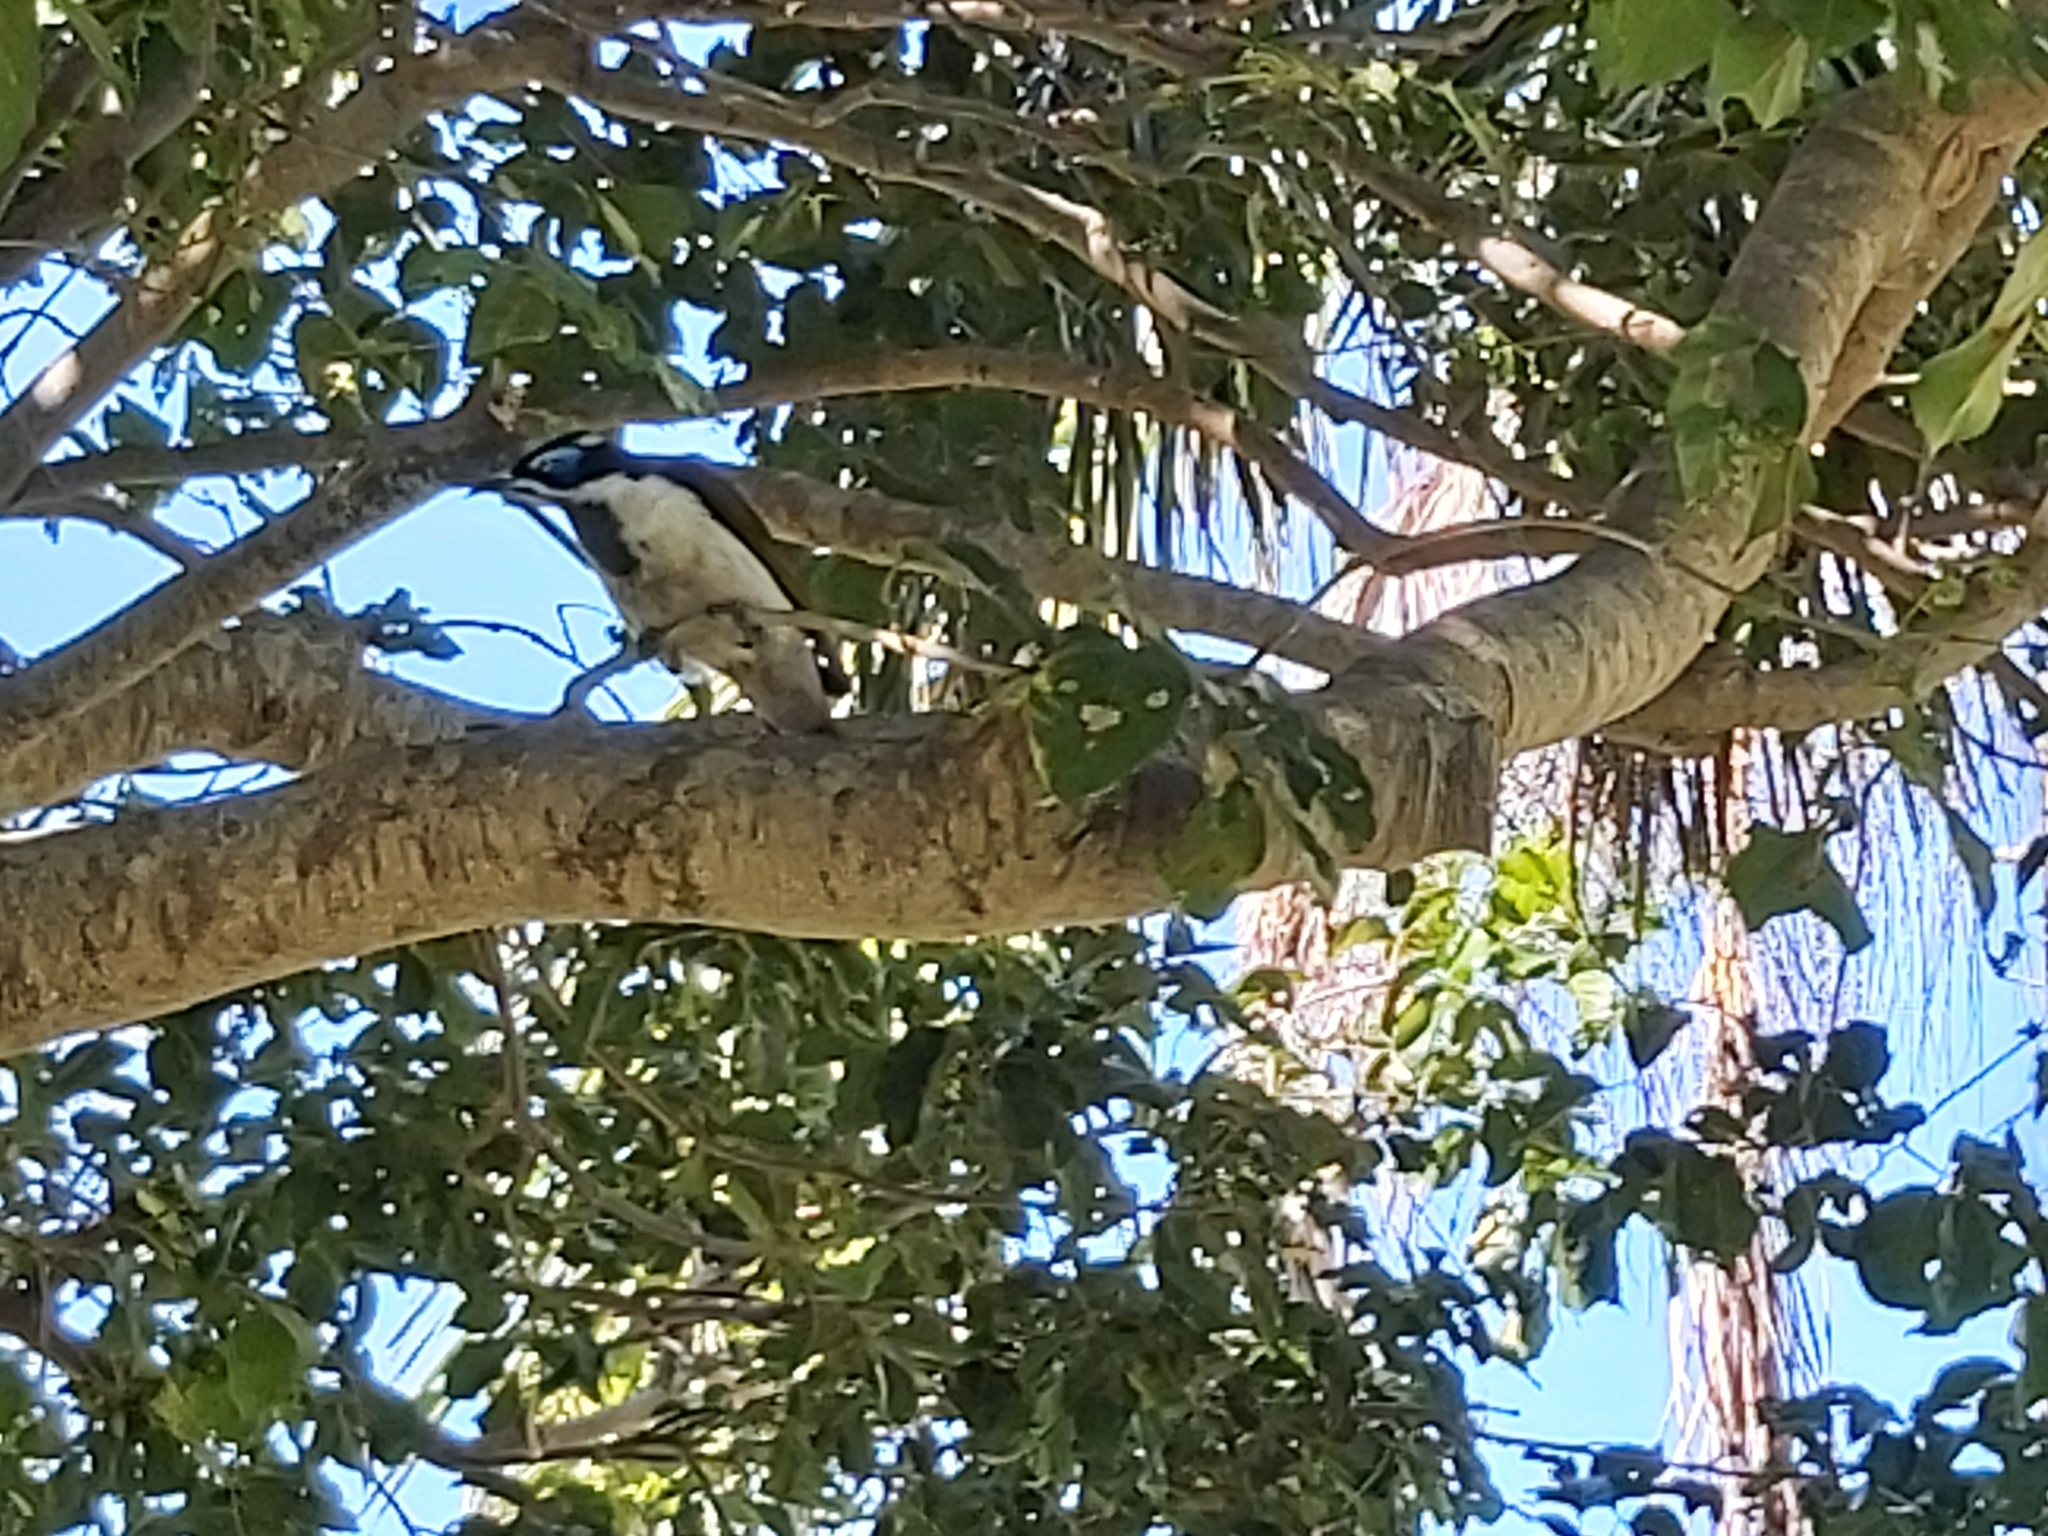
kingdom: Animalia
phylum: Chordata
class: Aves
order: Passeriformes
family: Meliphagidae
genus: Entomyzon
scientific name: Entomyzon cyanotis
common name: Blue-faced honeyeater
